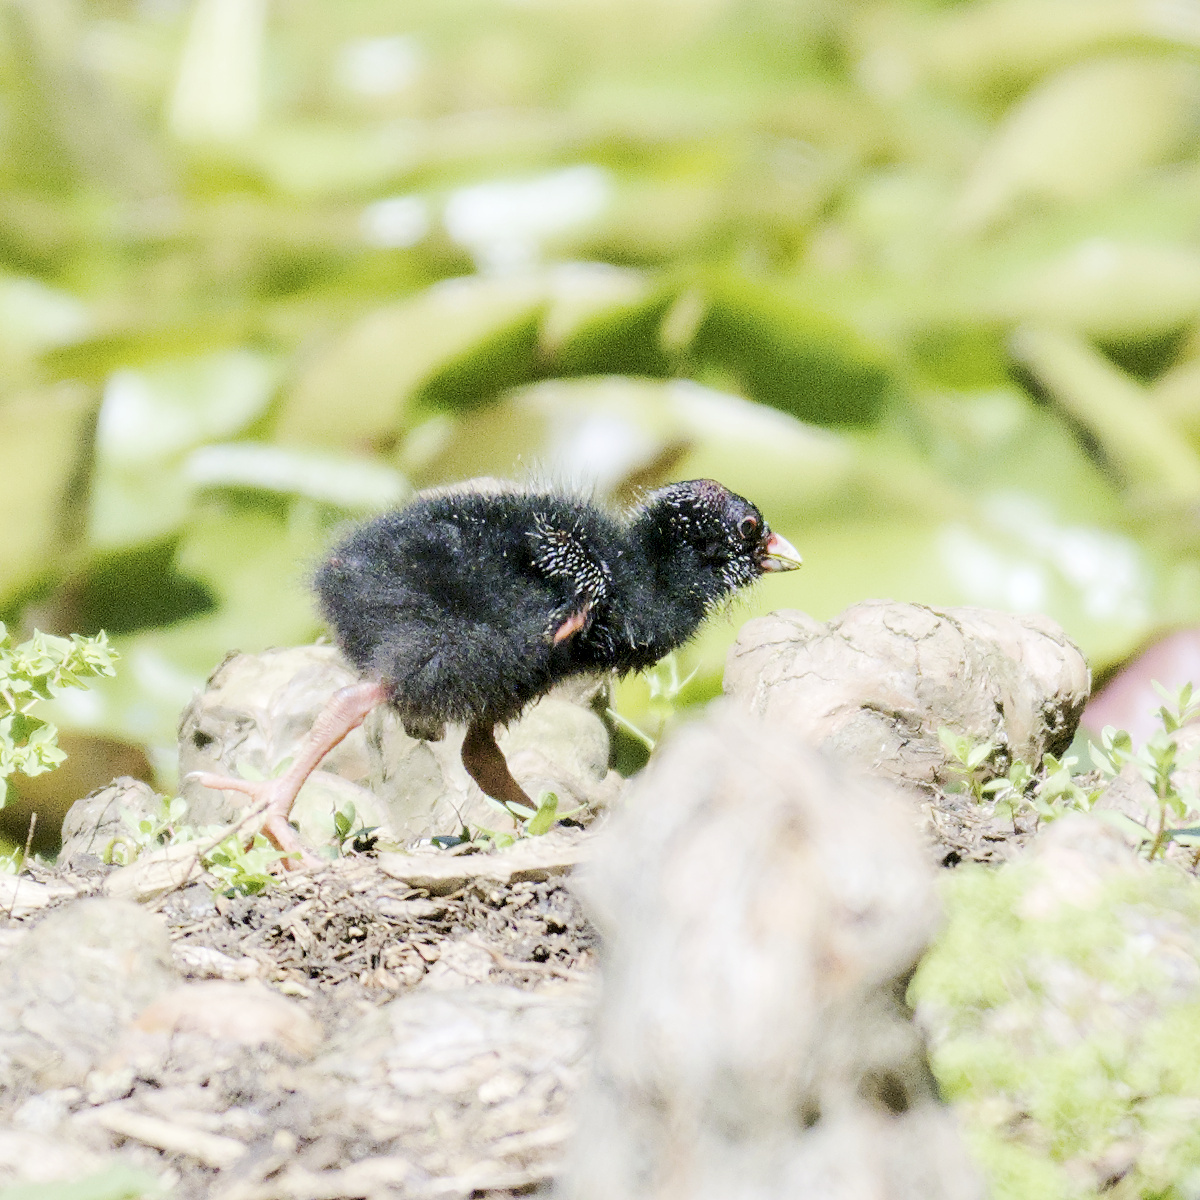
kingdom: Animalia
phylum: Chordata
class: Aves
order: Gruiformes
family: Rallidae
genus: Porphyrio
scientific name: Porphyrio melanotus
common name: Australasian swamphen
